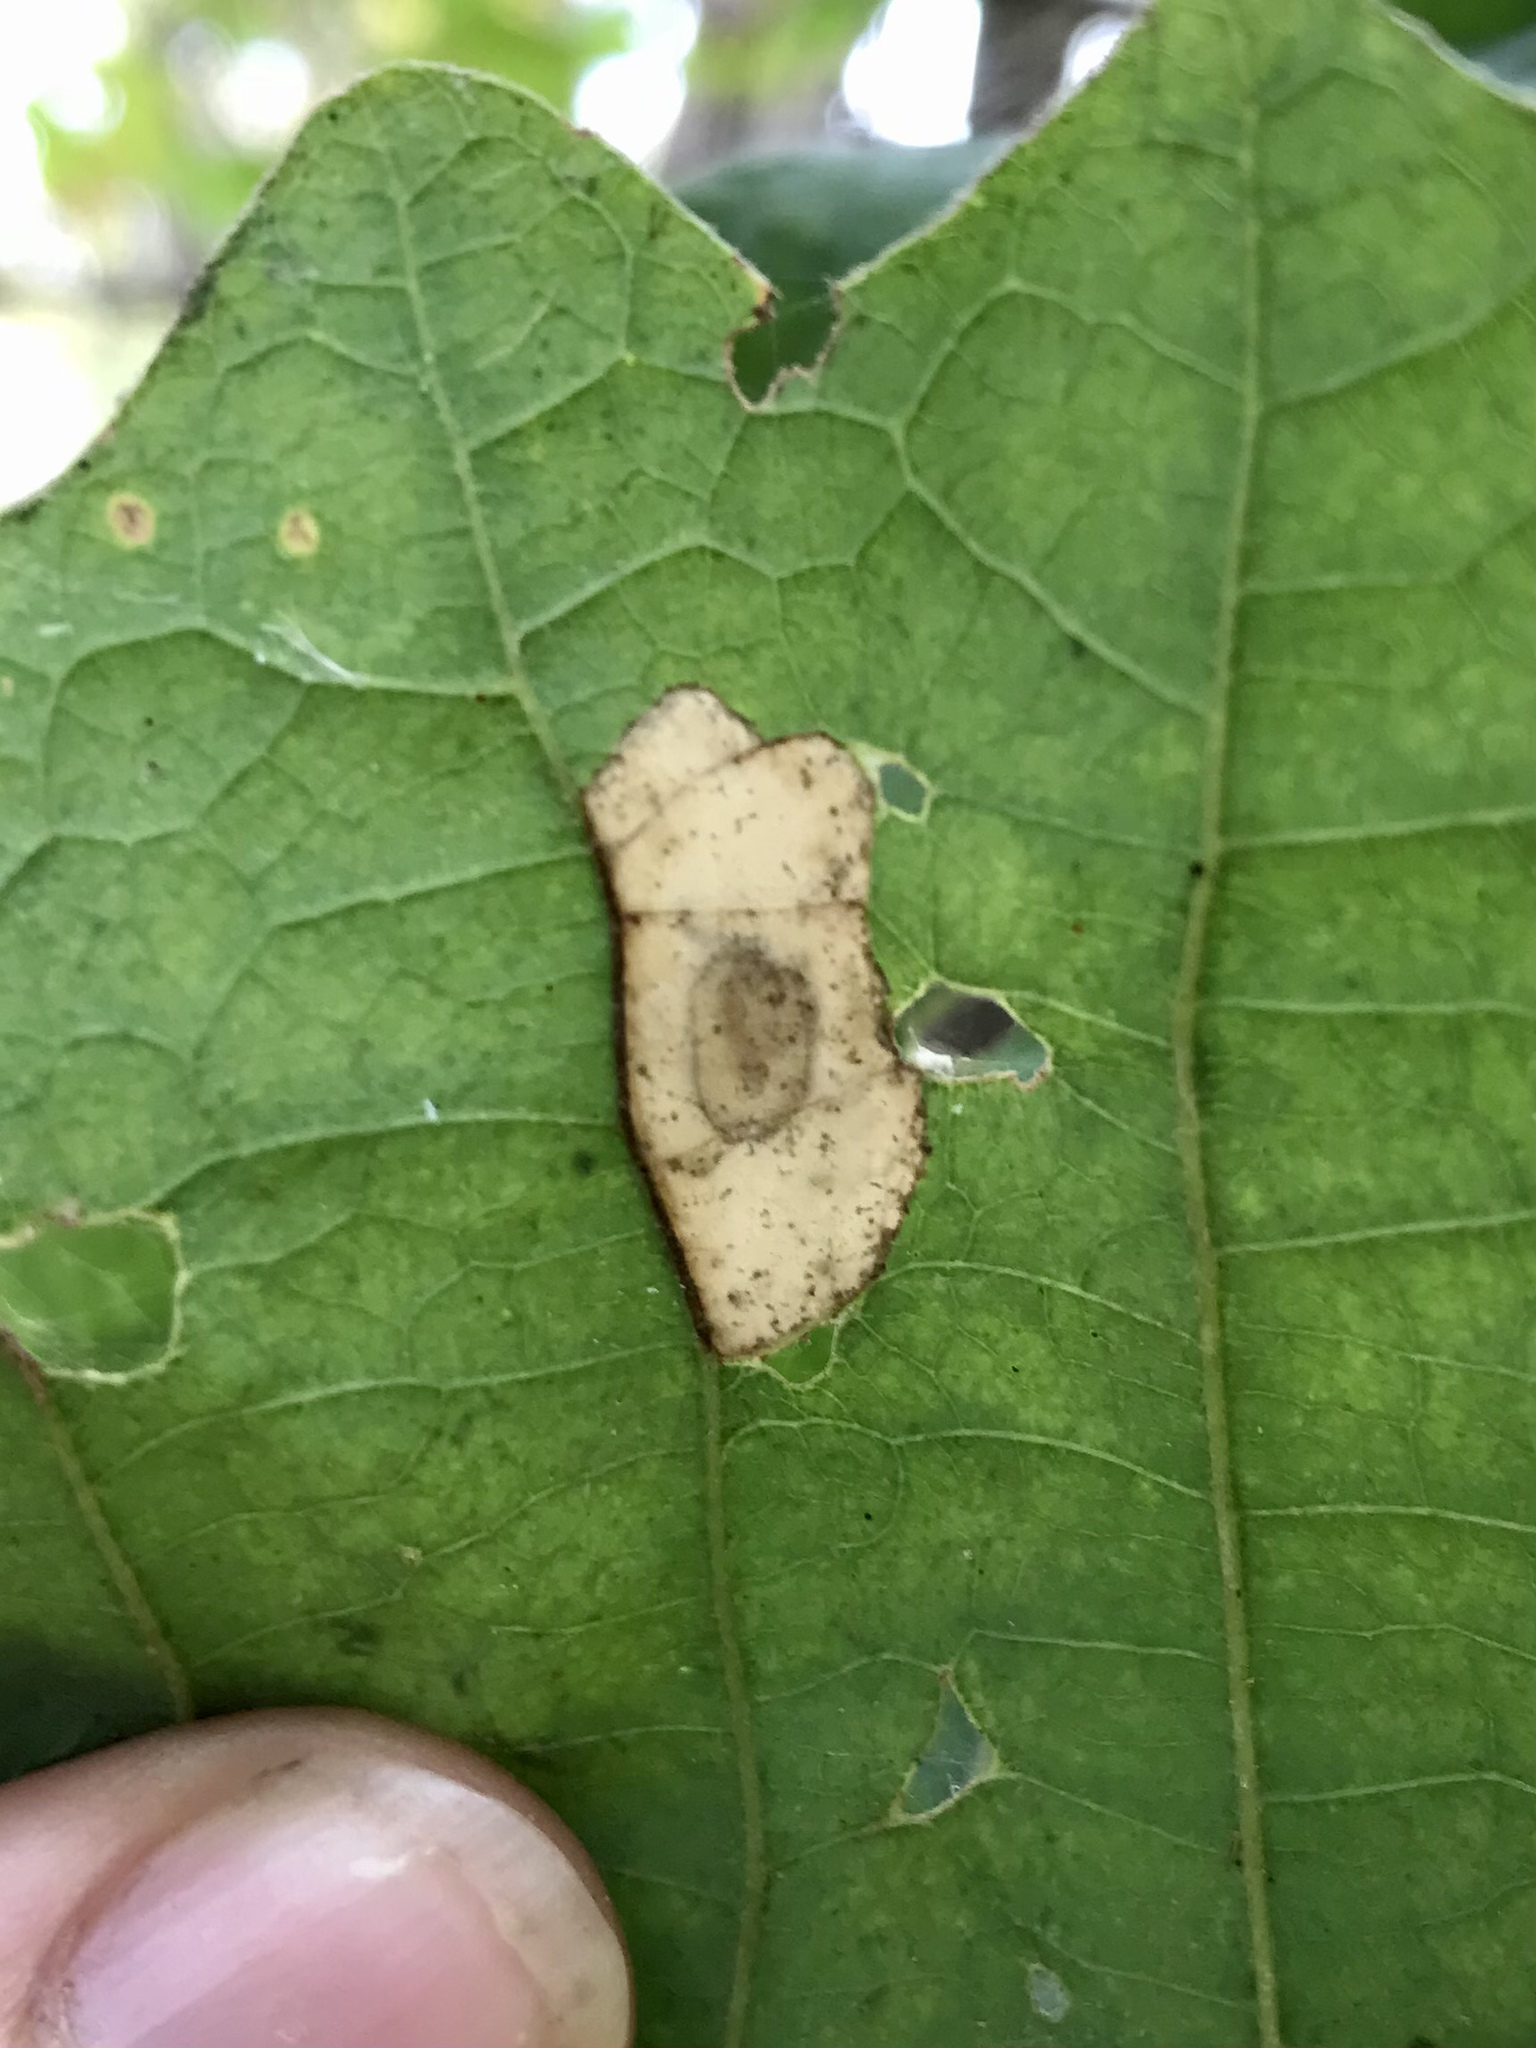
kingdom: Animalia
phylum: Arthropoda
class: Insecta
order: Lepidoptera
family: Gracillariidae
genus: Phyllonorycter
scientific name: Phyllonorycter basistrigella
